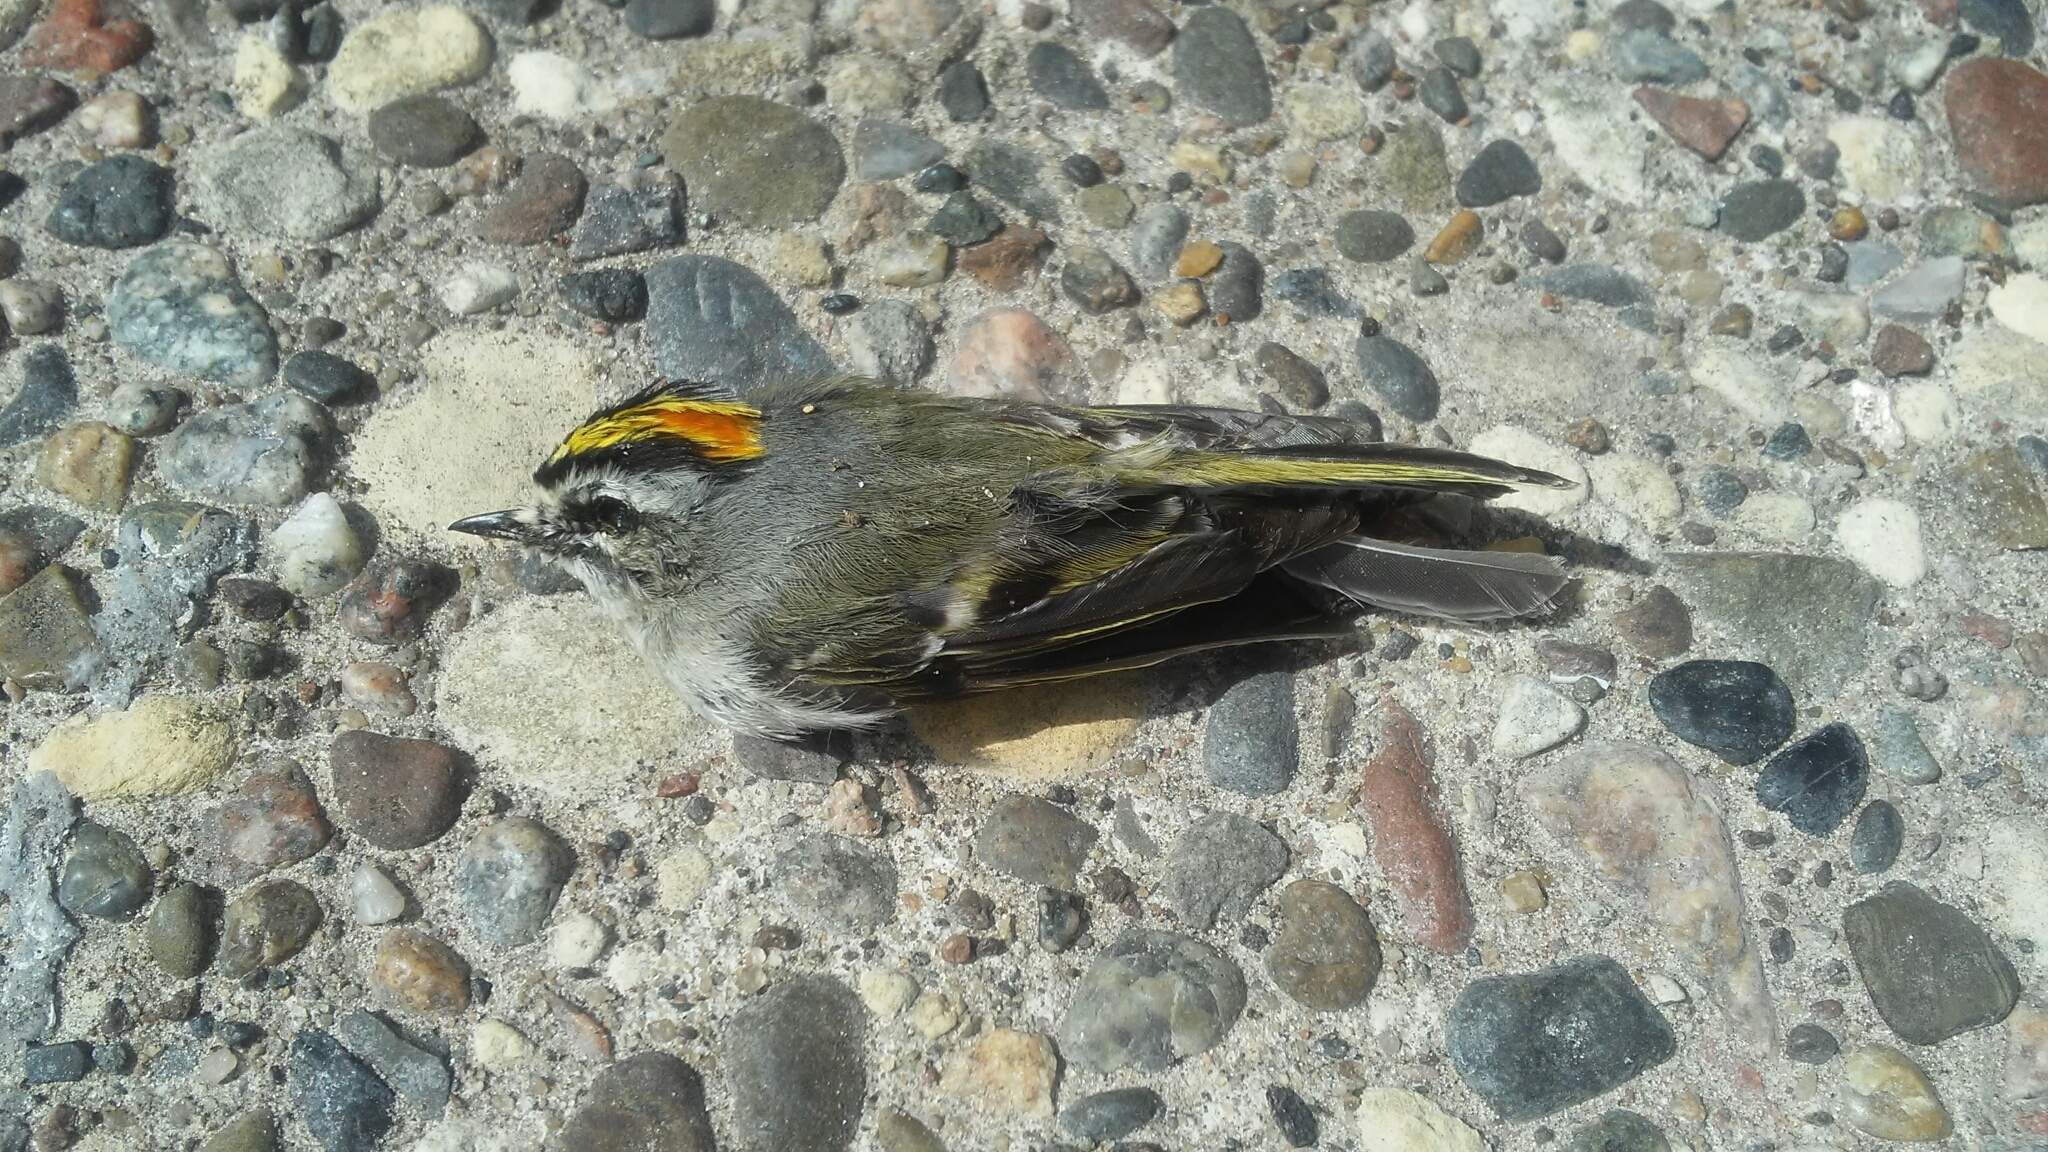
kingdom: Animalia
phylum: Chordata
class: Aves
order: Passeriformes
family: Regulidae
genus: Regulus
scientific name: Regulus satrapa
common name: Golden-crowned kinglet
